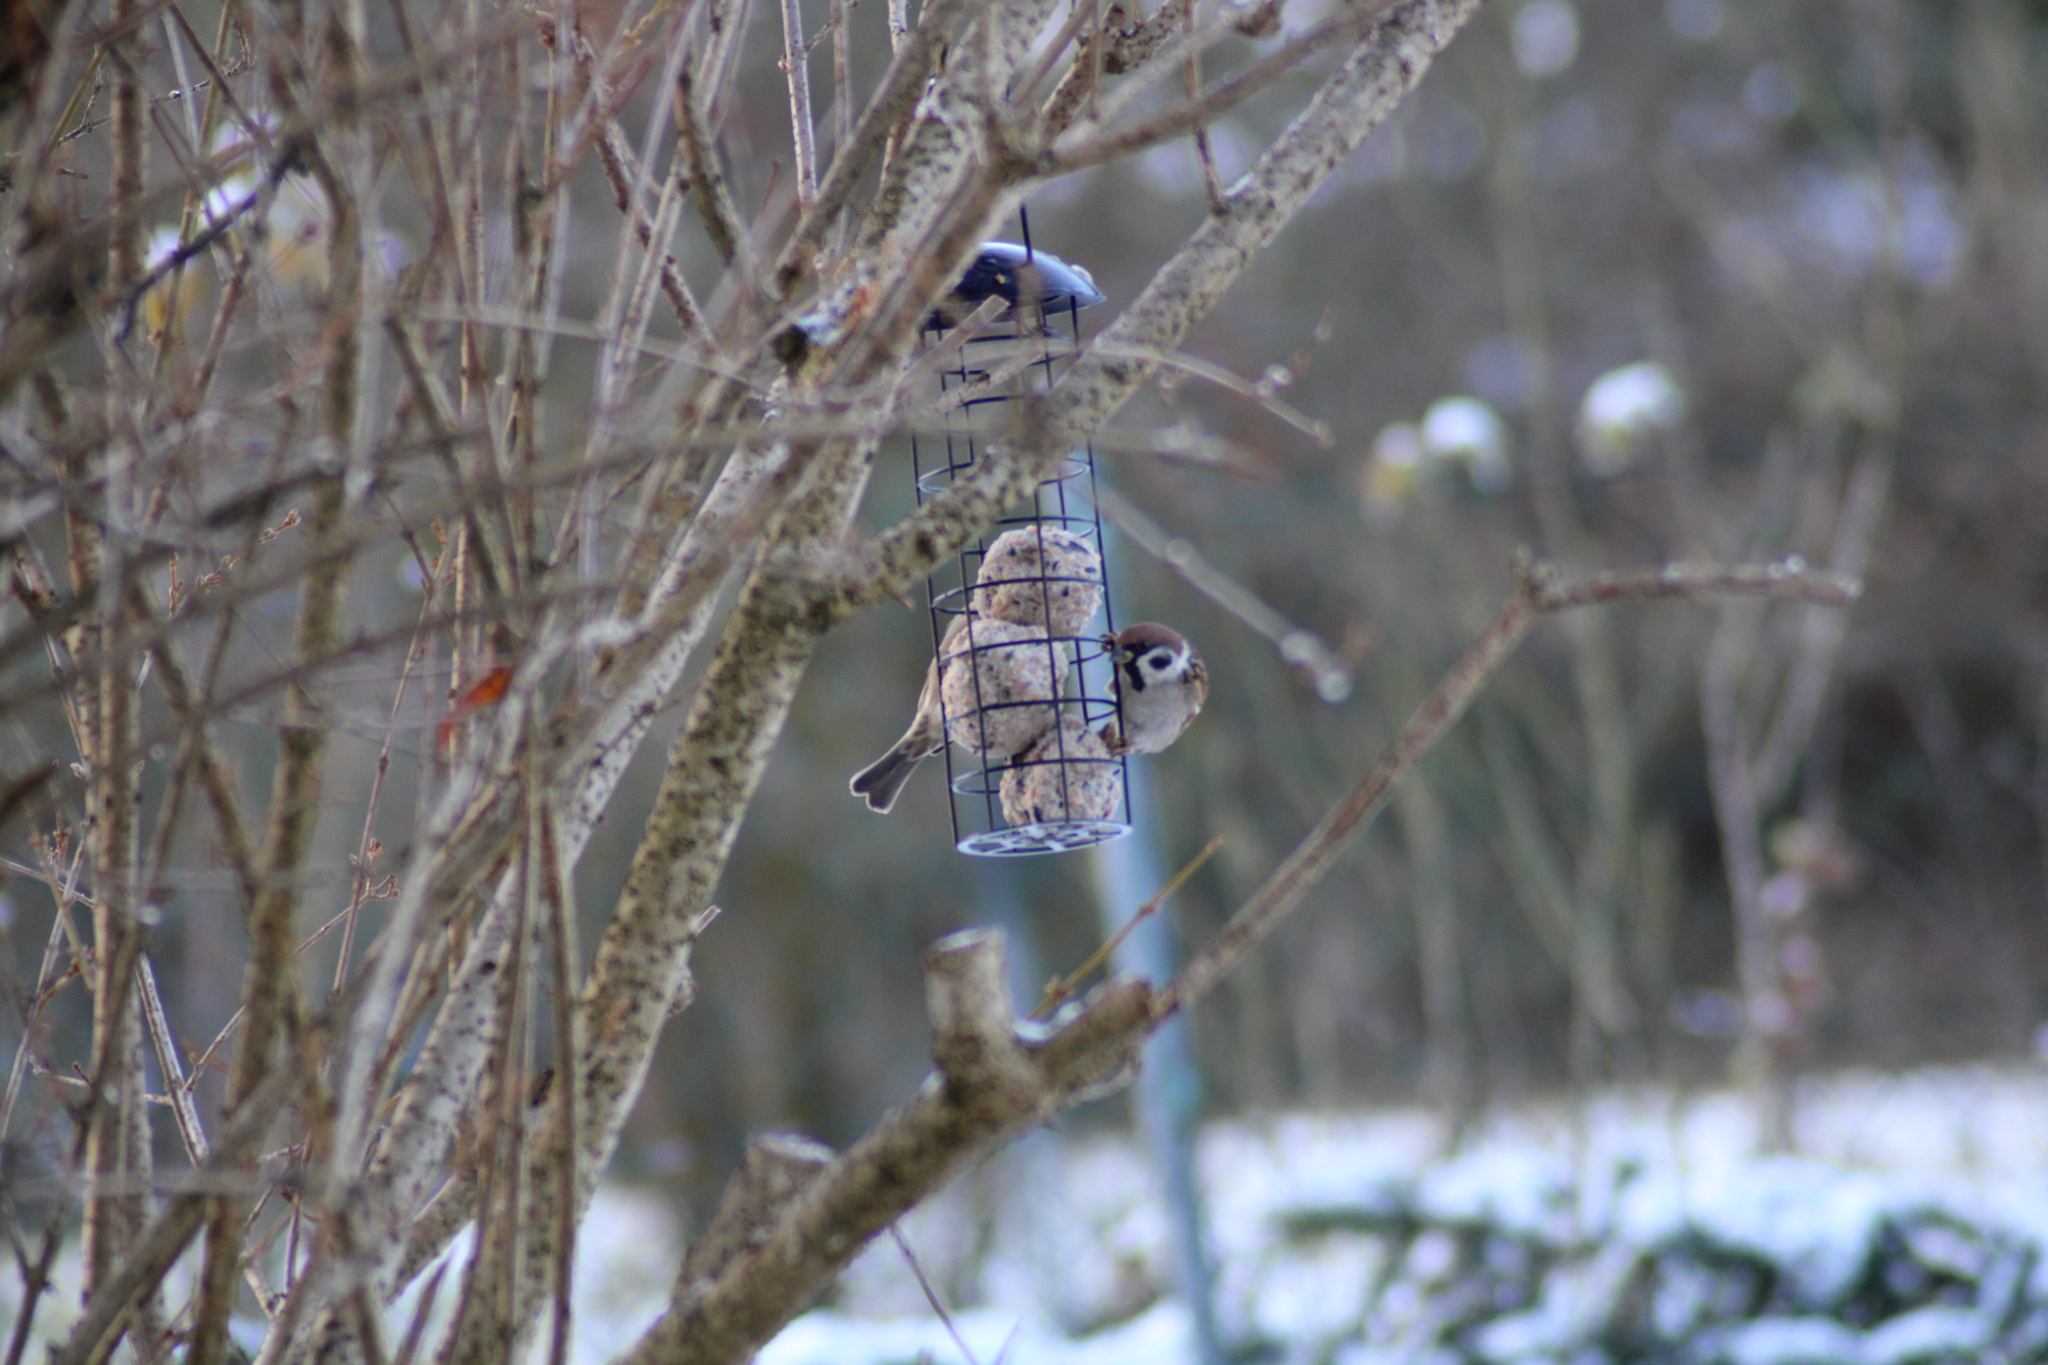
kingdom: Animalia
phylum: Chordata
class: Aves
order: Passeriformes
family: Passeridae
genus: Passer
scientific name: Passer montanus
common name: Eurasian tree sparrow
